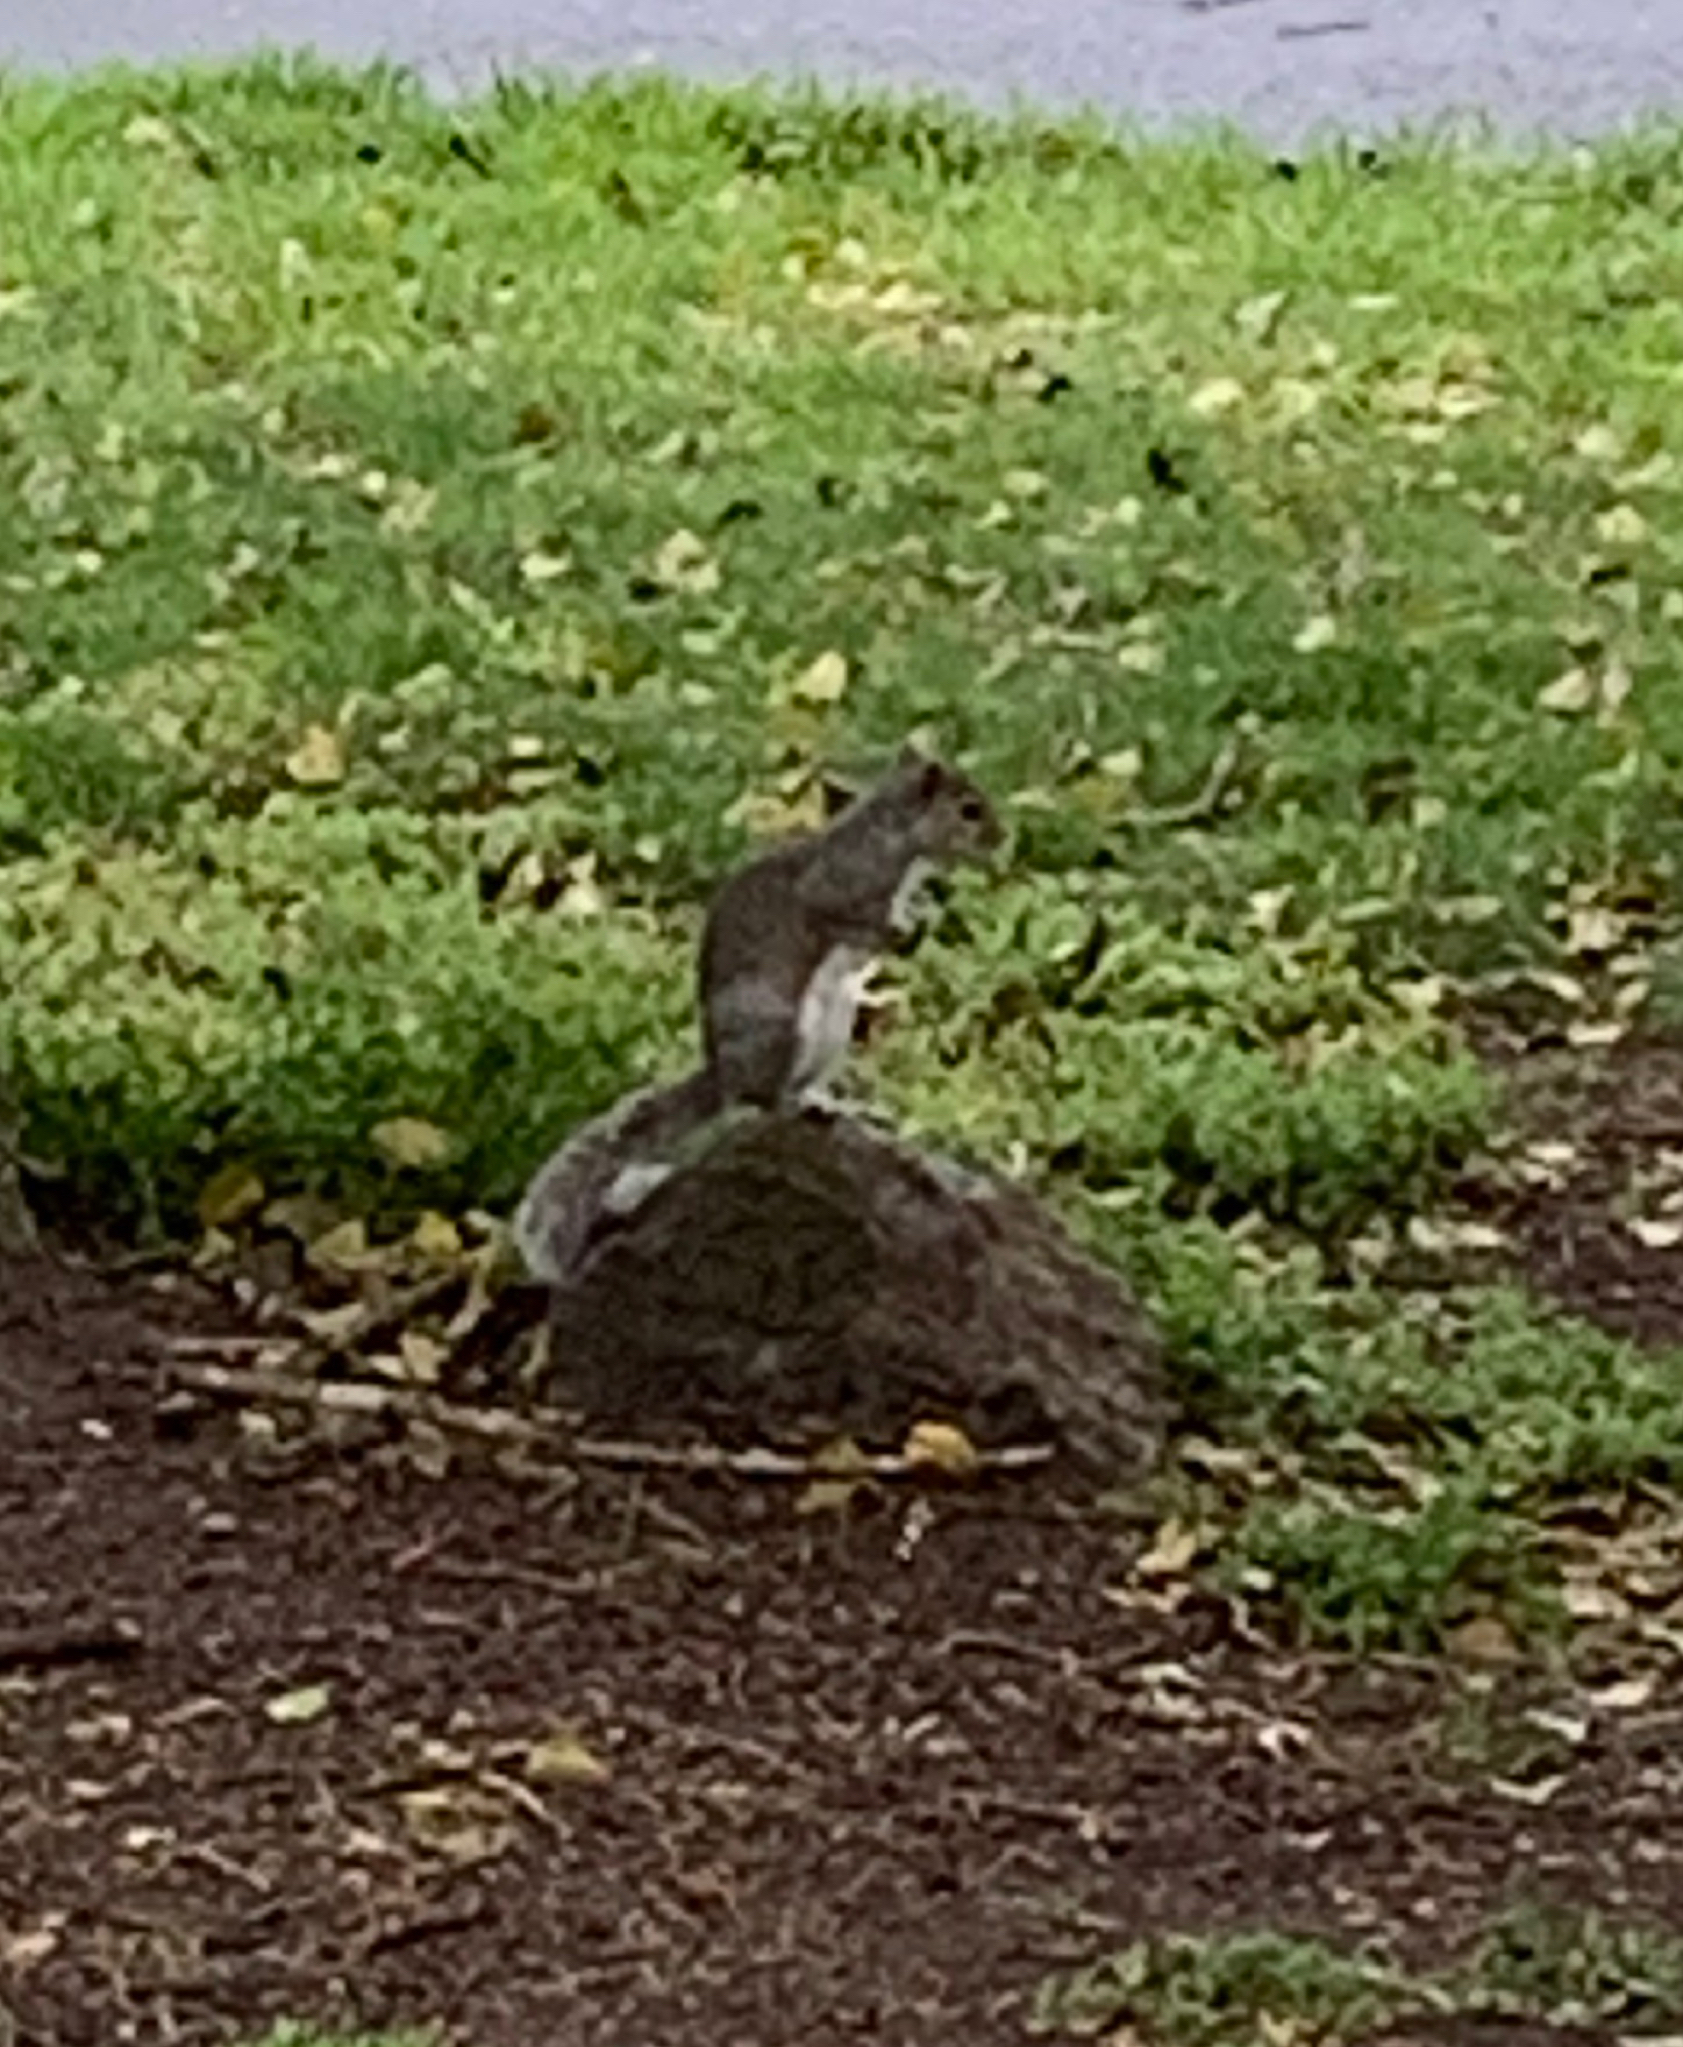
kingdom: Animalia
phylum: Chordata
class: Mammalia
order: Rodentia
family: Sciuridae
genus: Sciurus
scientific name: Sciurus carolinensis
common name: Eastern gray squirrel
